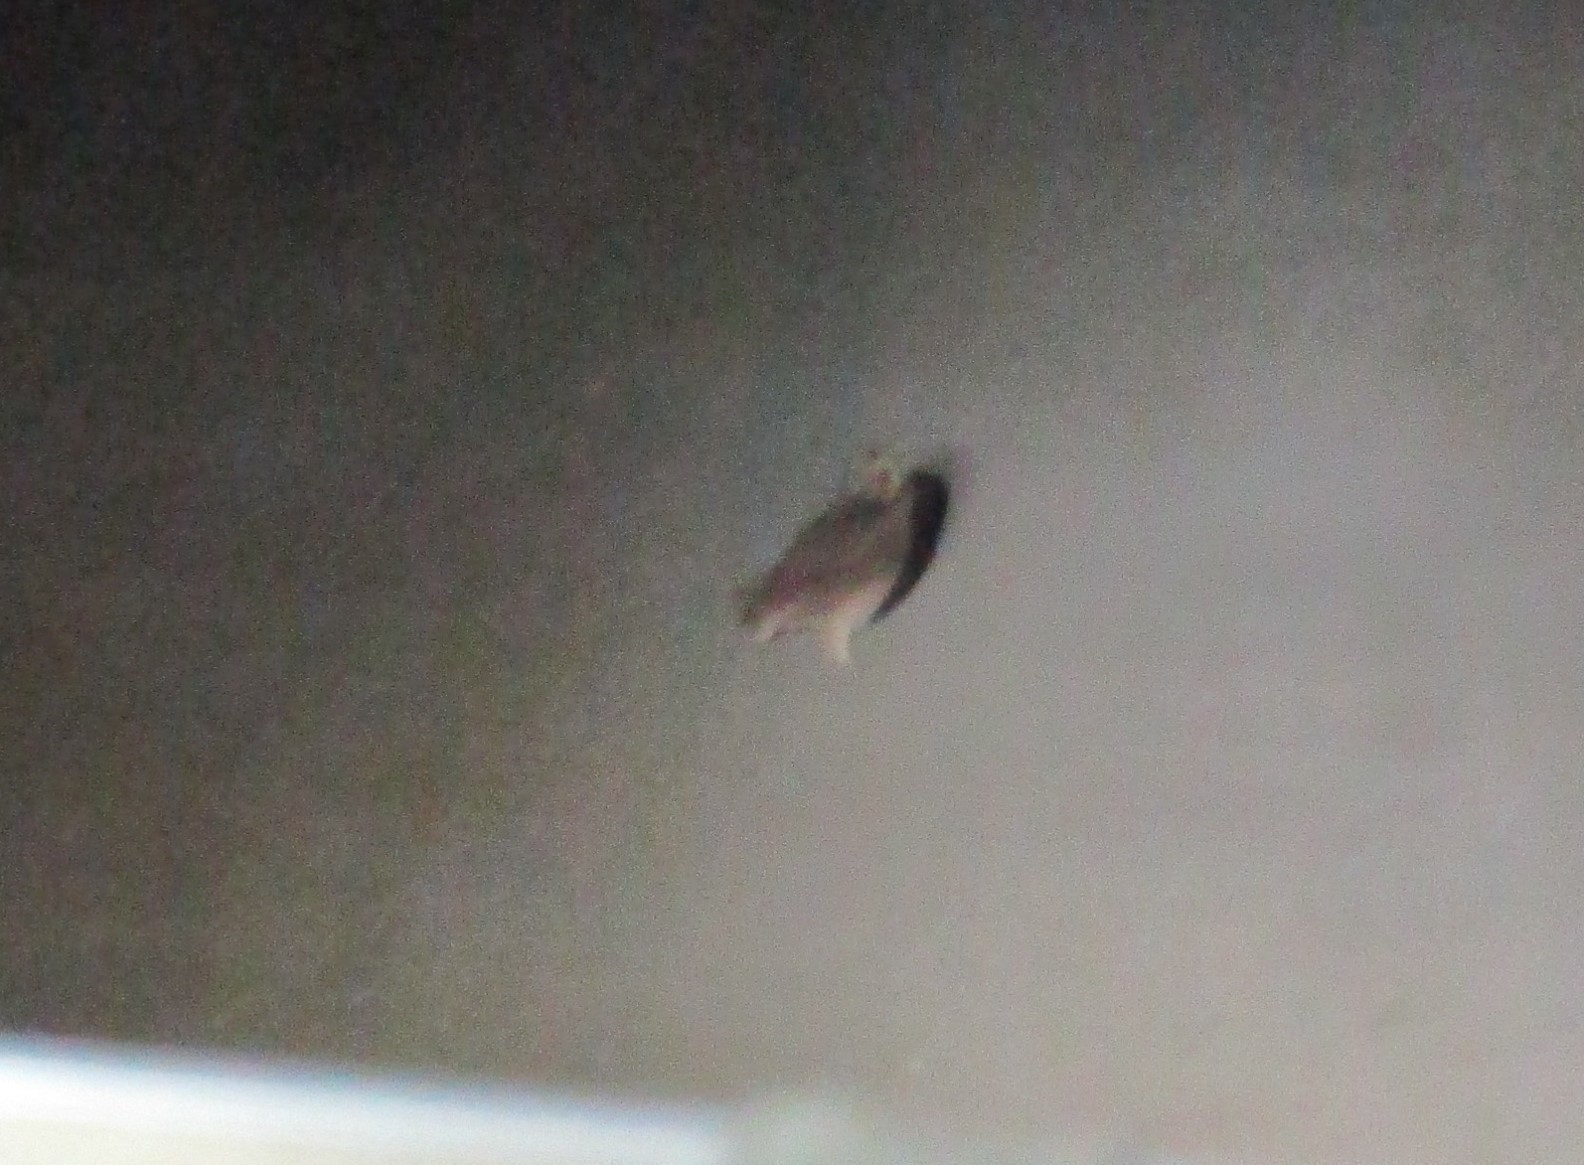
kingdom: Animalia
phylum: Chordata
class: Aves
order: Strigiformes
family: Strigidae
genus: Asio
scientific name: Asio capensis
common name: Marsh owl
